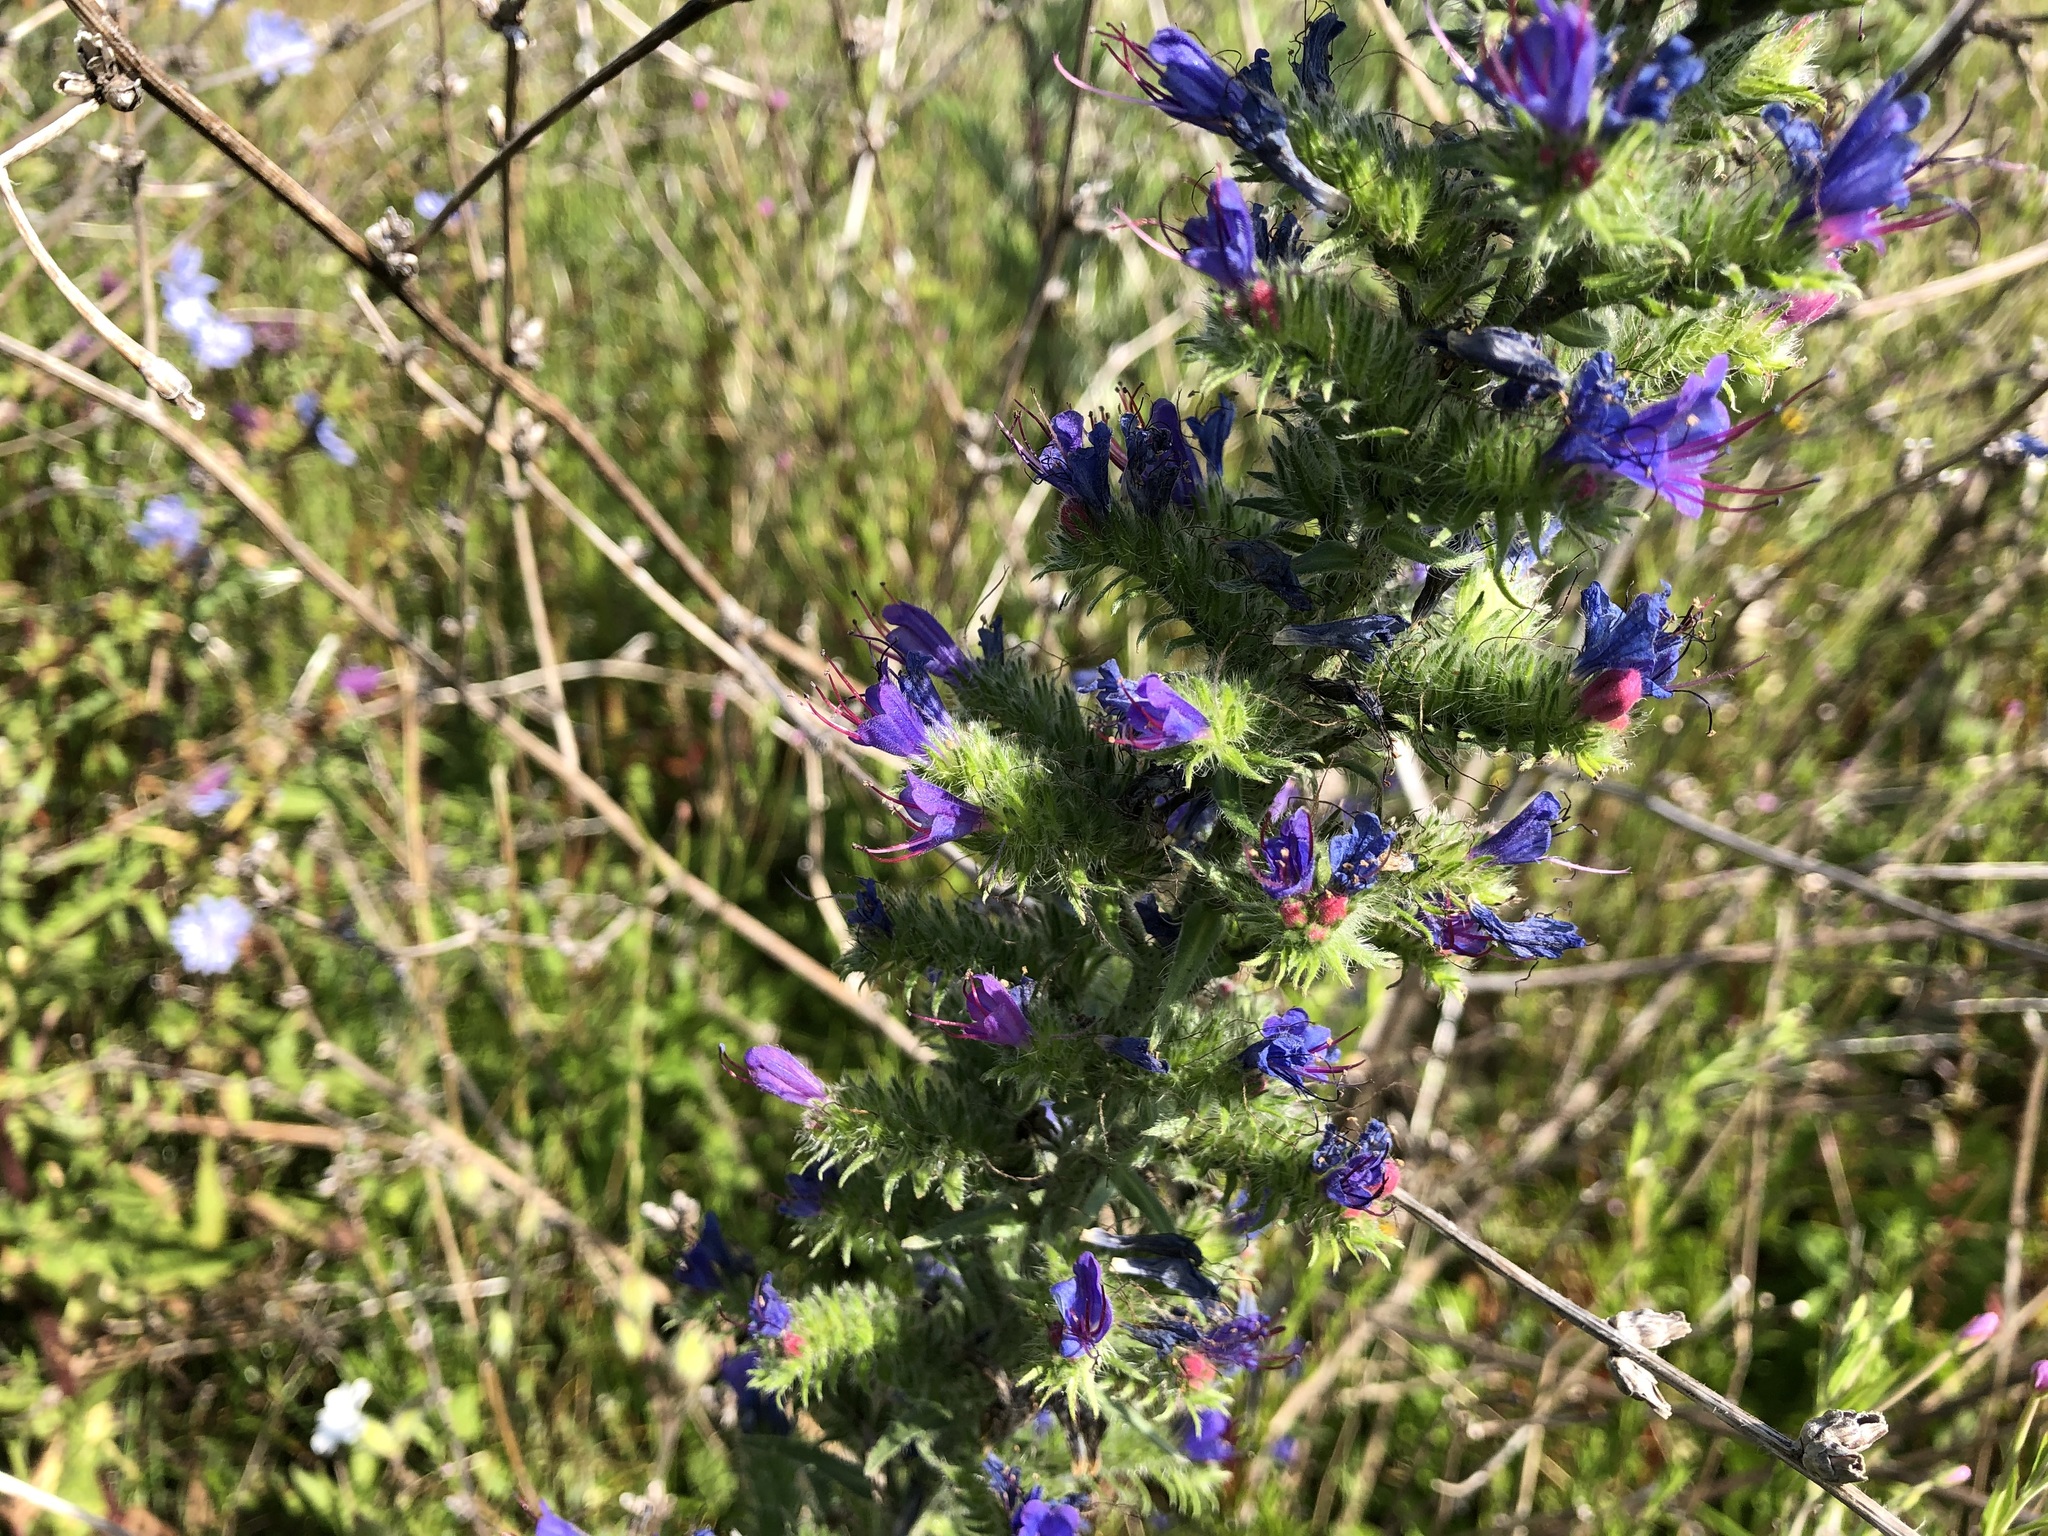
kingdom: Plantae
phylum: Tracheophyta
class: Magnoliopsida
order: Boraginales
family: Boraginaceae
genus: Echium
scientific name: Echium vulgare
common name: Common viper's bugloss
